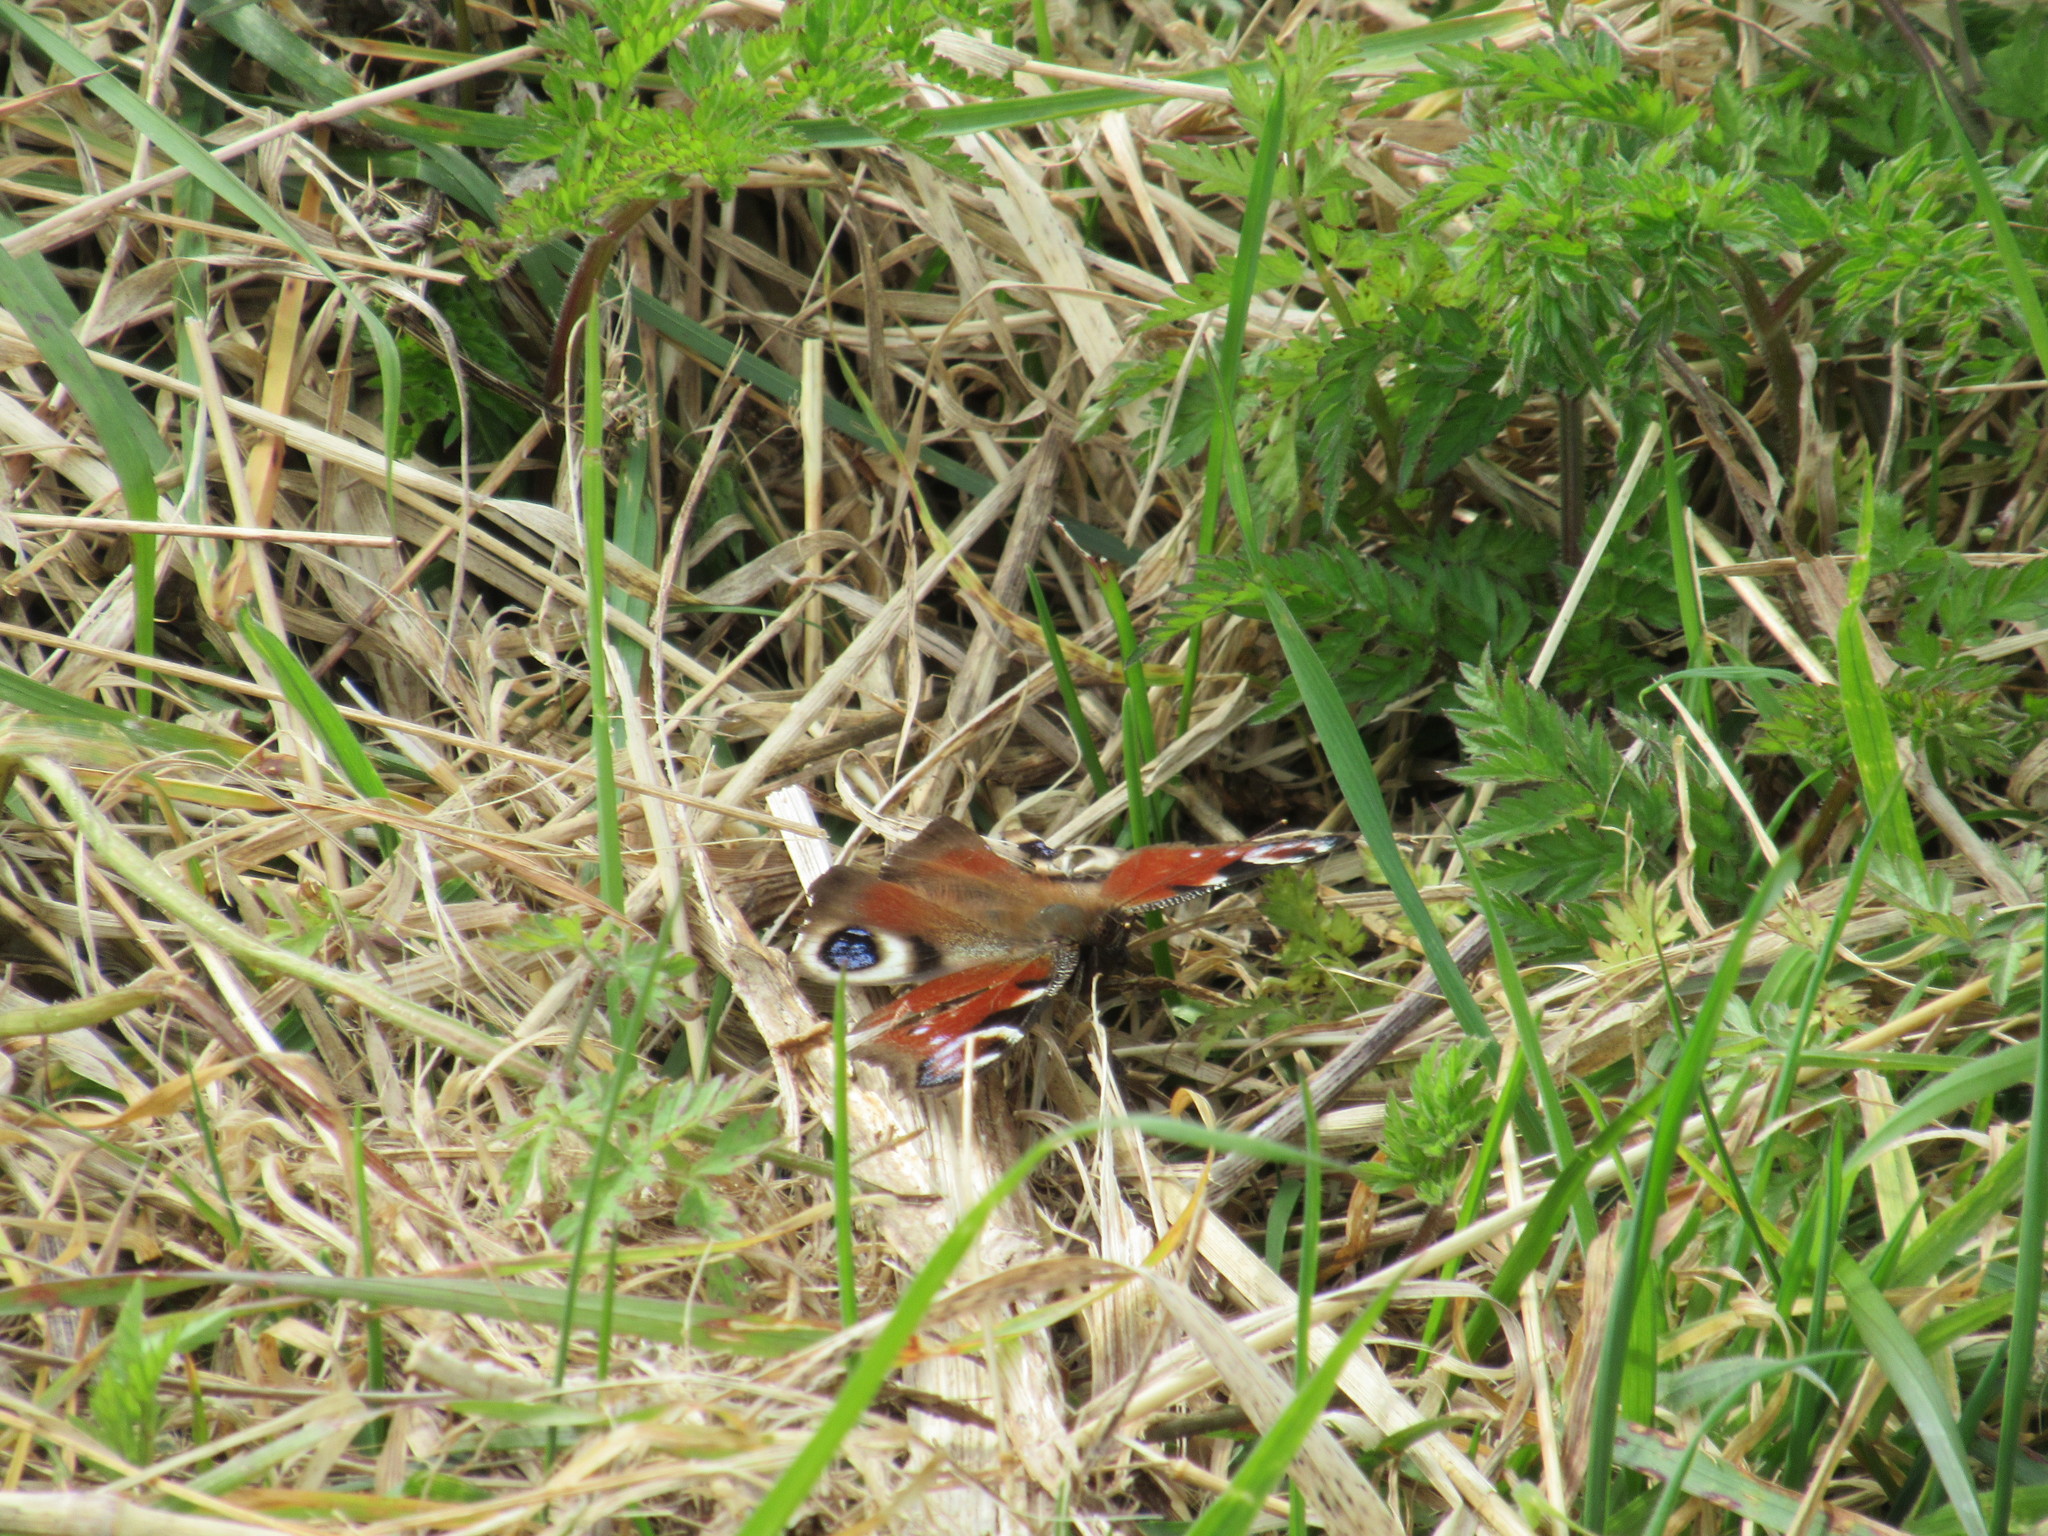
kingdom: Animalia
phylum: Arthropoda
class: Insecta
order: Lepidoptera
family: Nymphalidae
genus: Aglais
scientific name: Aglais io
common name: Peacock
